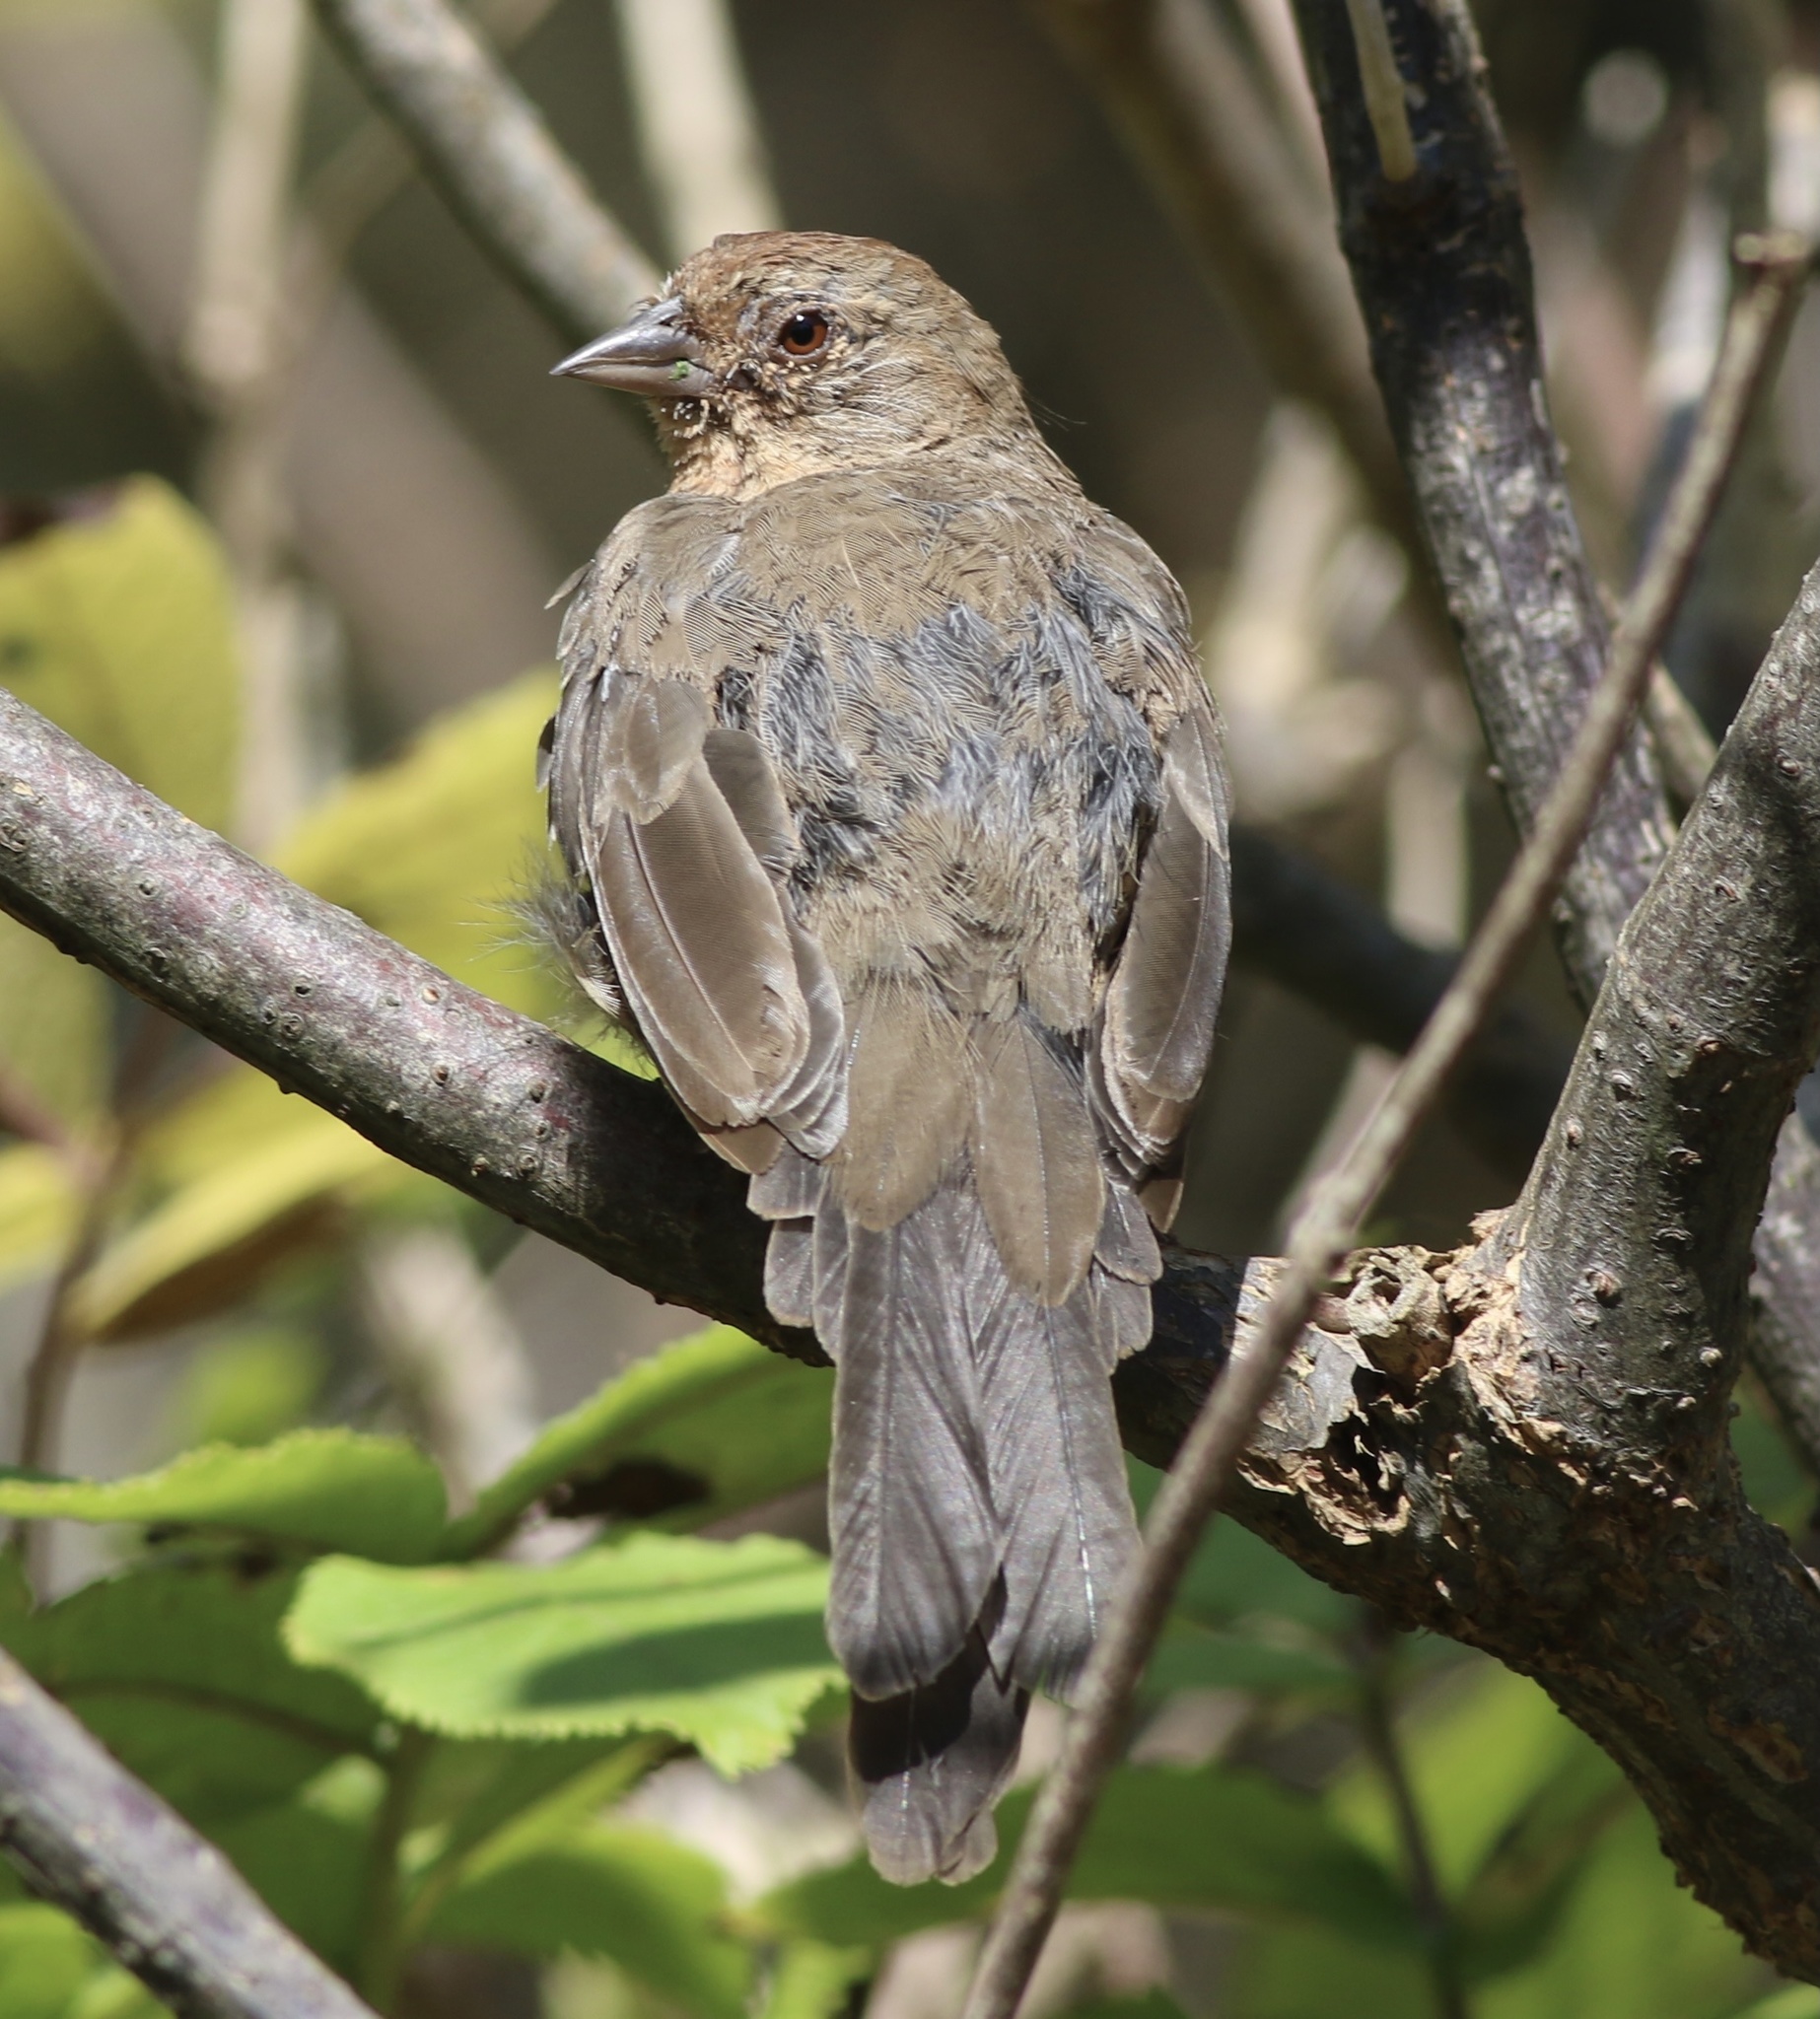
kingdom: Animalia
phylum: Chordata
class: Aves
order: Passeriformes
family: Passerellidae
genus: Melozone
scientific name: Melozone crissalis
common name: California towhee
